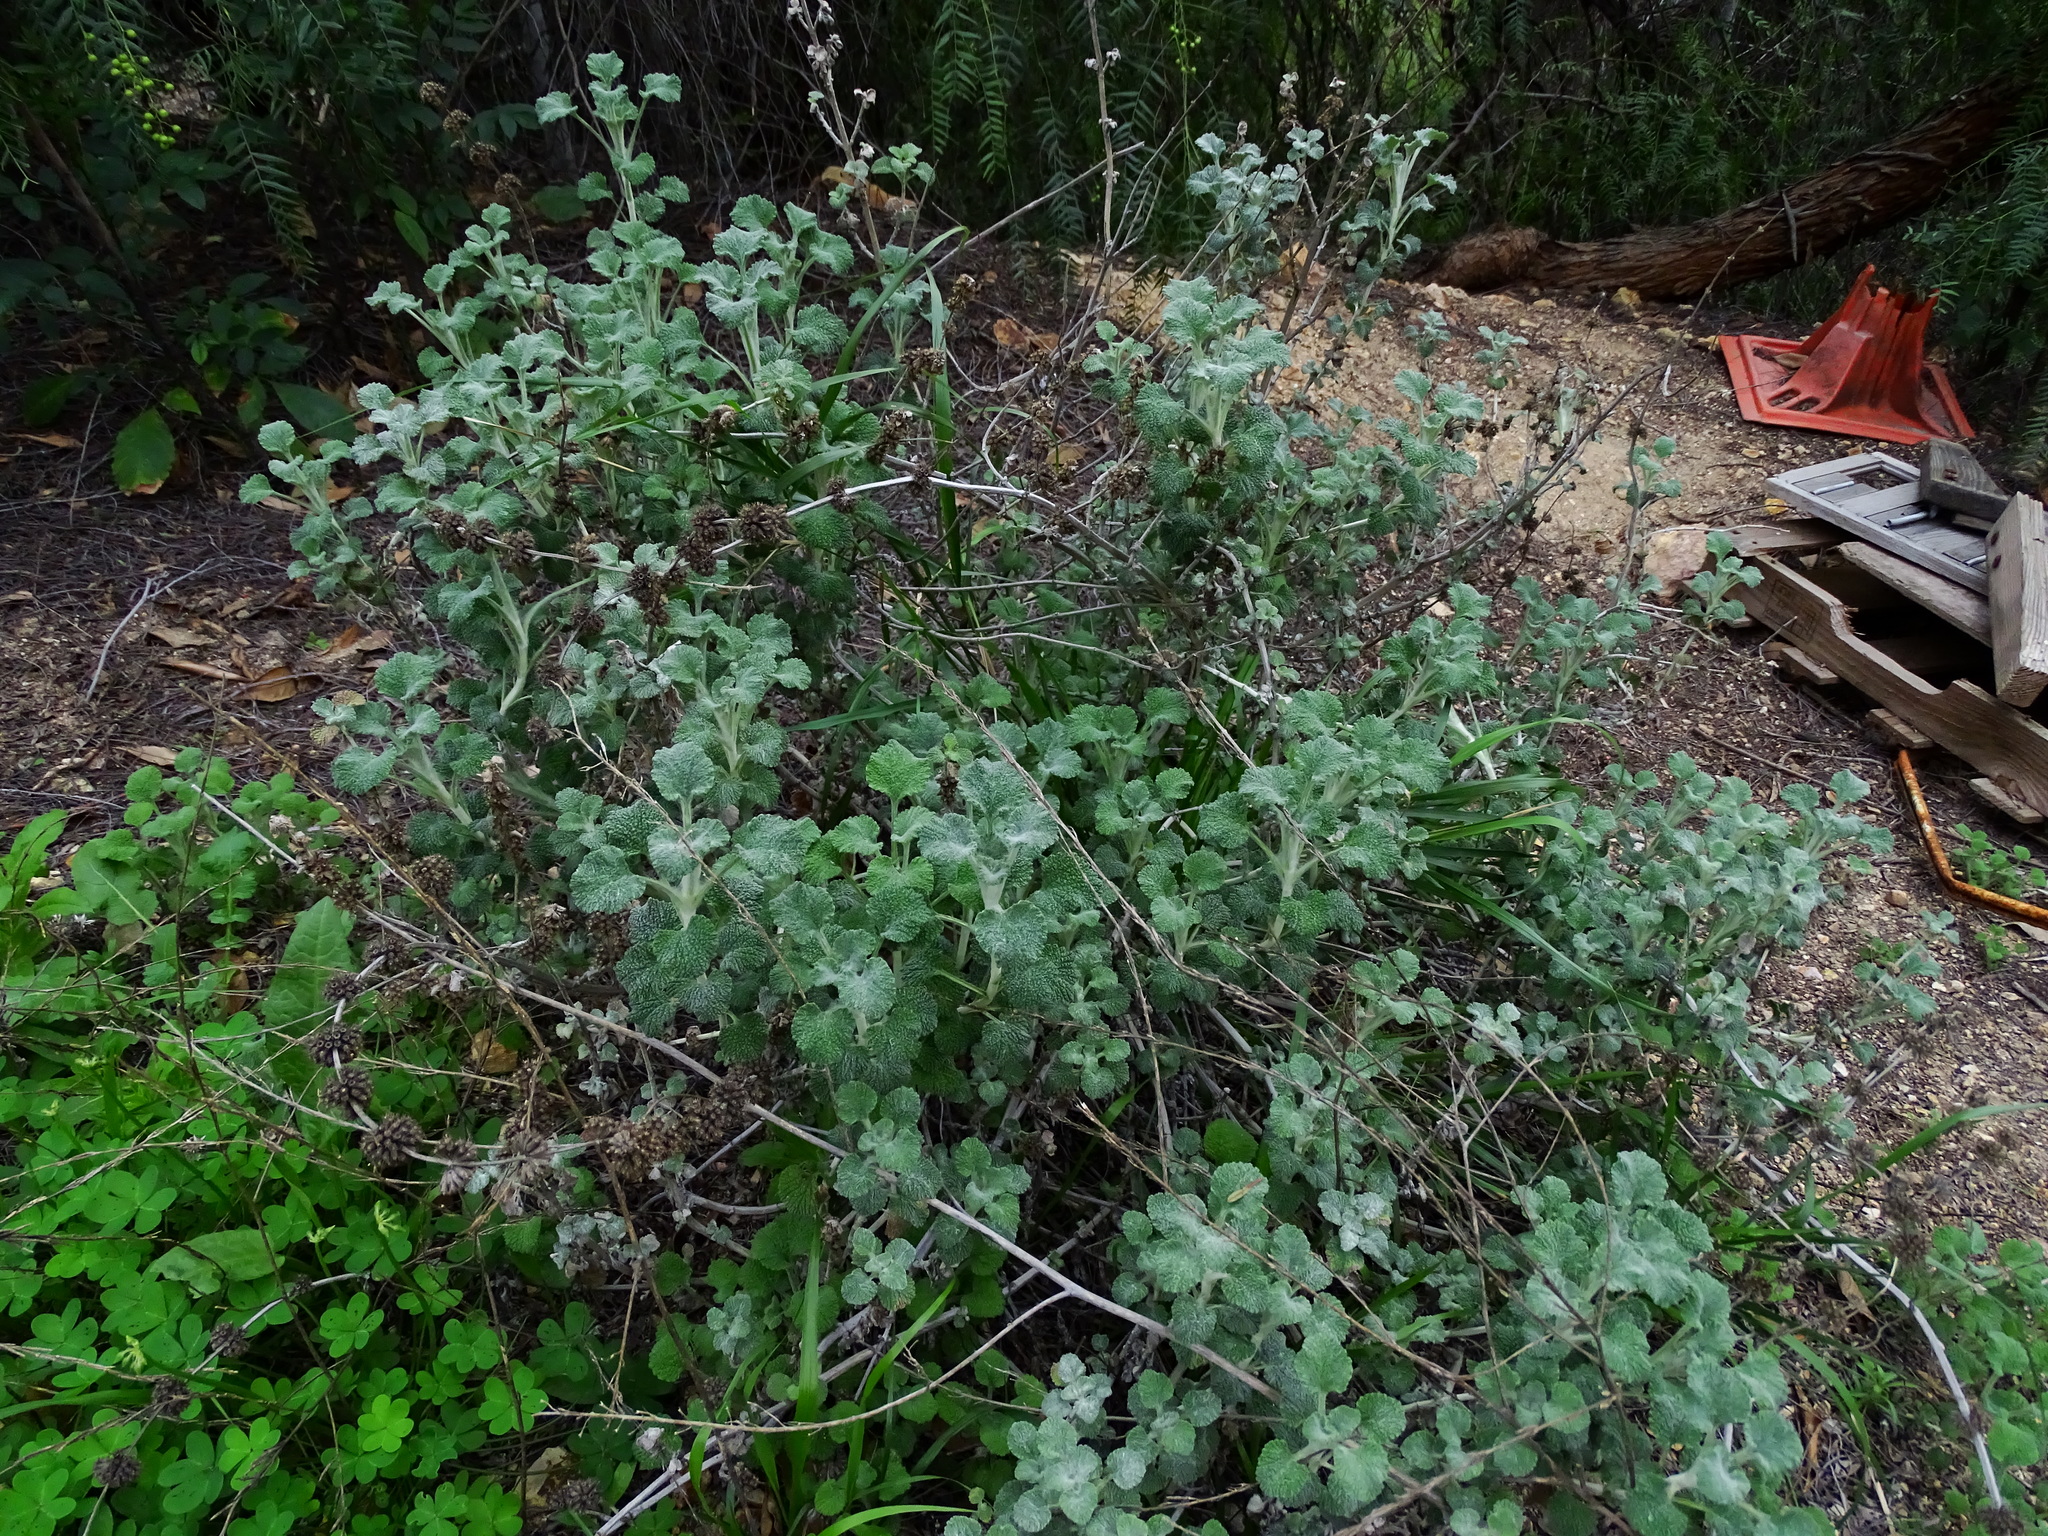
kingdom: Plantae
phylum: Tracheophyta
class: Magnoliopsida
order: Lamiales
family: Lamiaceae
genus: Marrubium
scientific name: Marrubium vulgare
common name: Horehound
